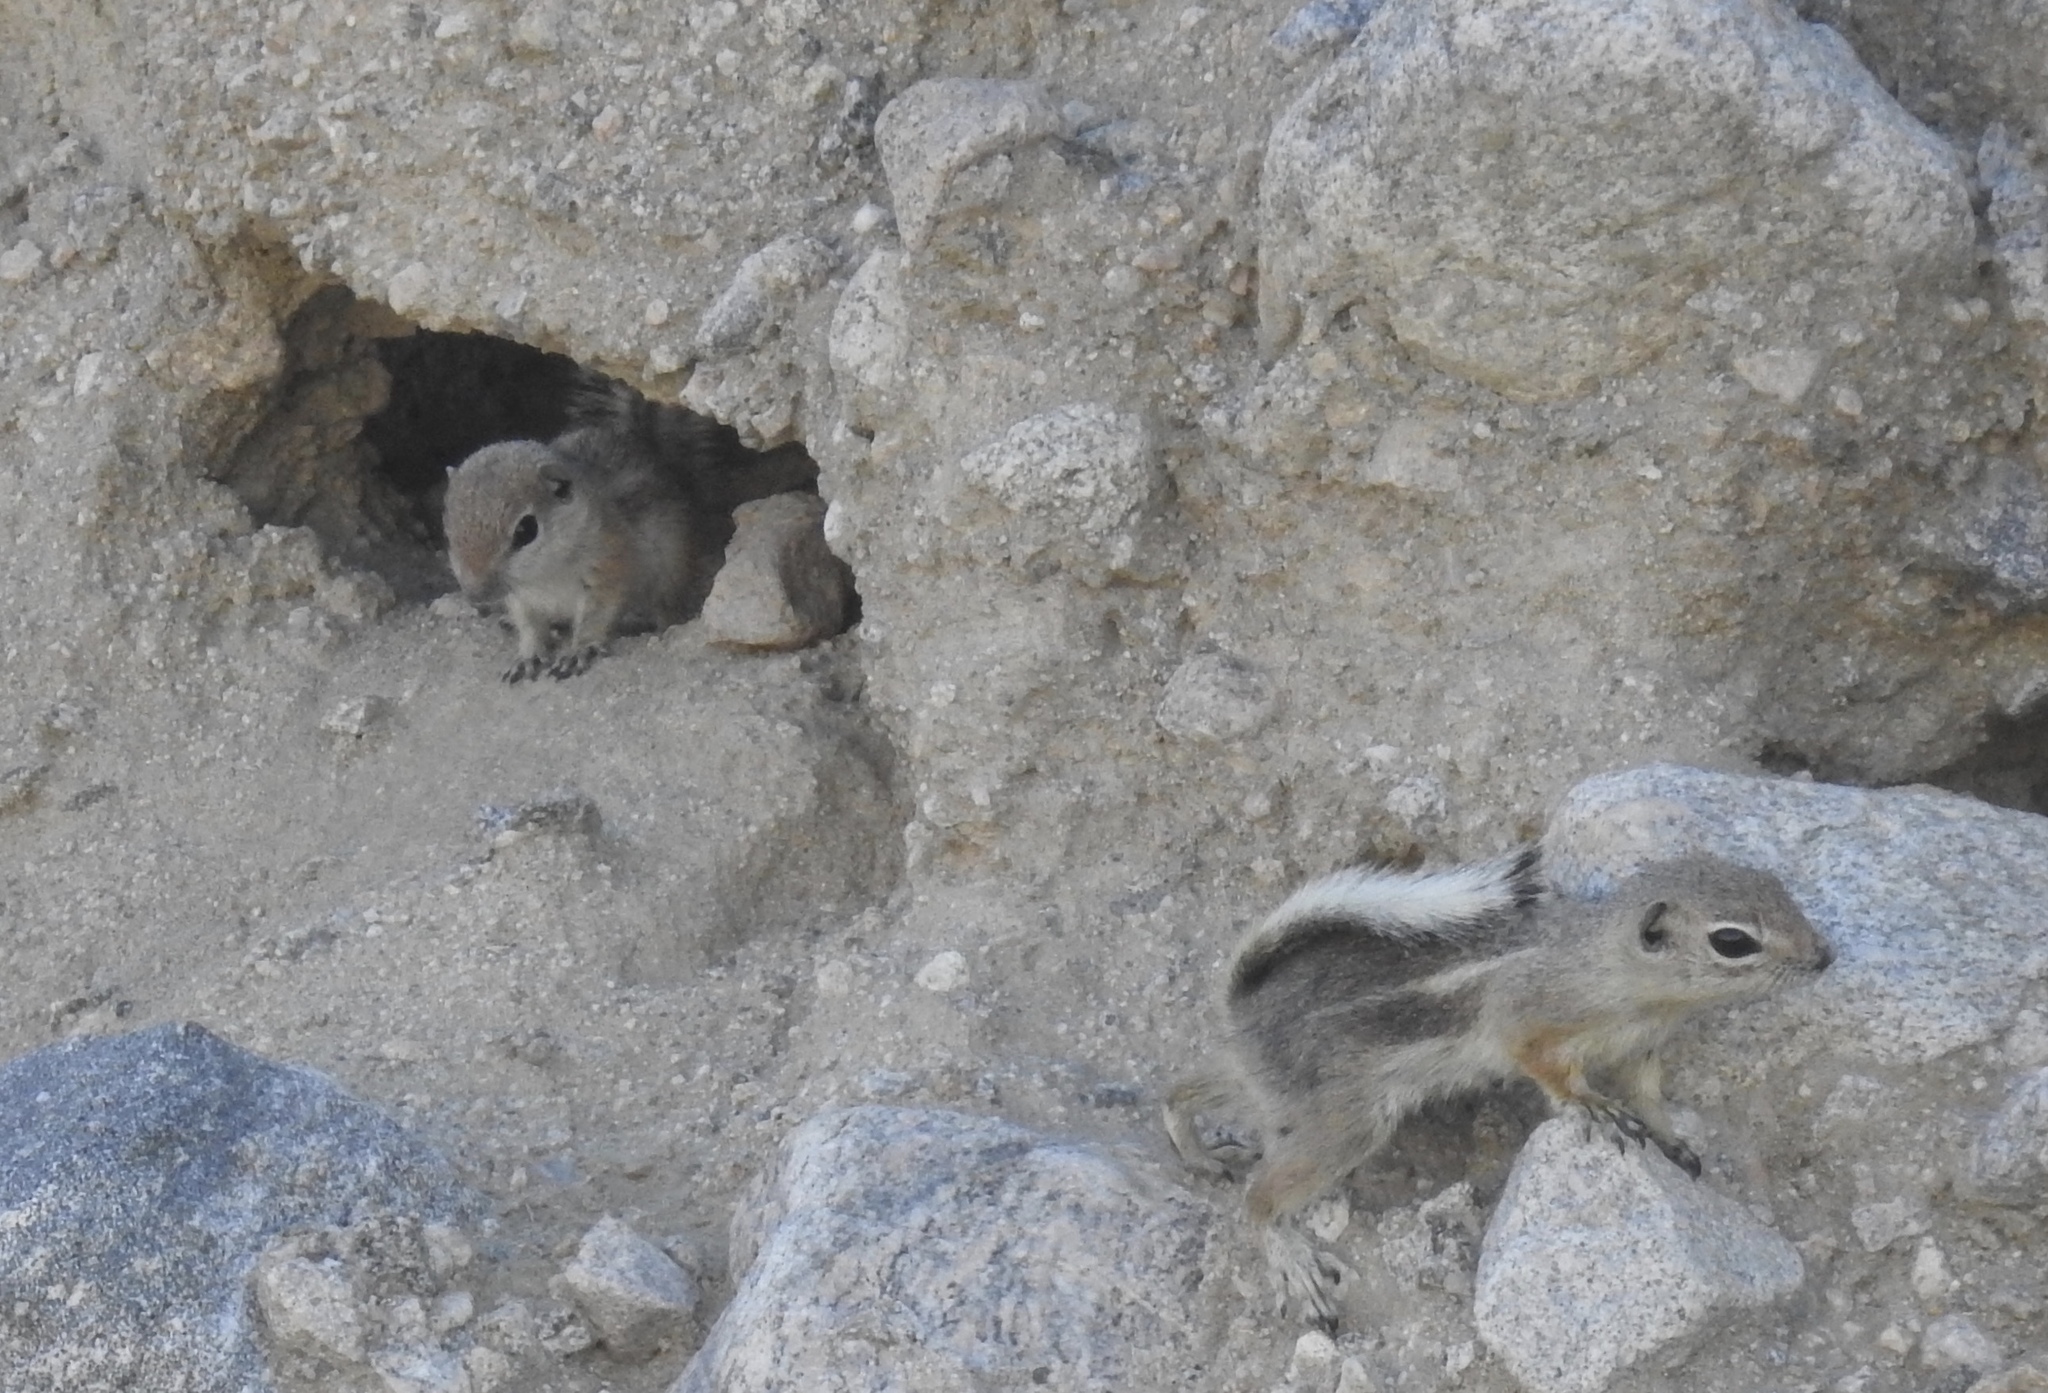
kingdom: Animalia
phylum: Chordata
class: Mammalia
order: Rodentia
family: Sciuridae
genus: Ammospermophilus
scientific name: Ammospermophilus leucurus
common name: White-tailed antelope squirrel
